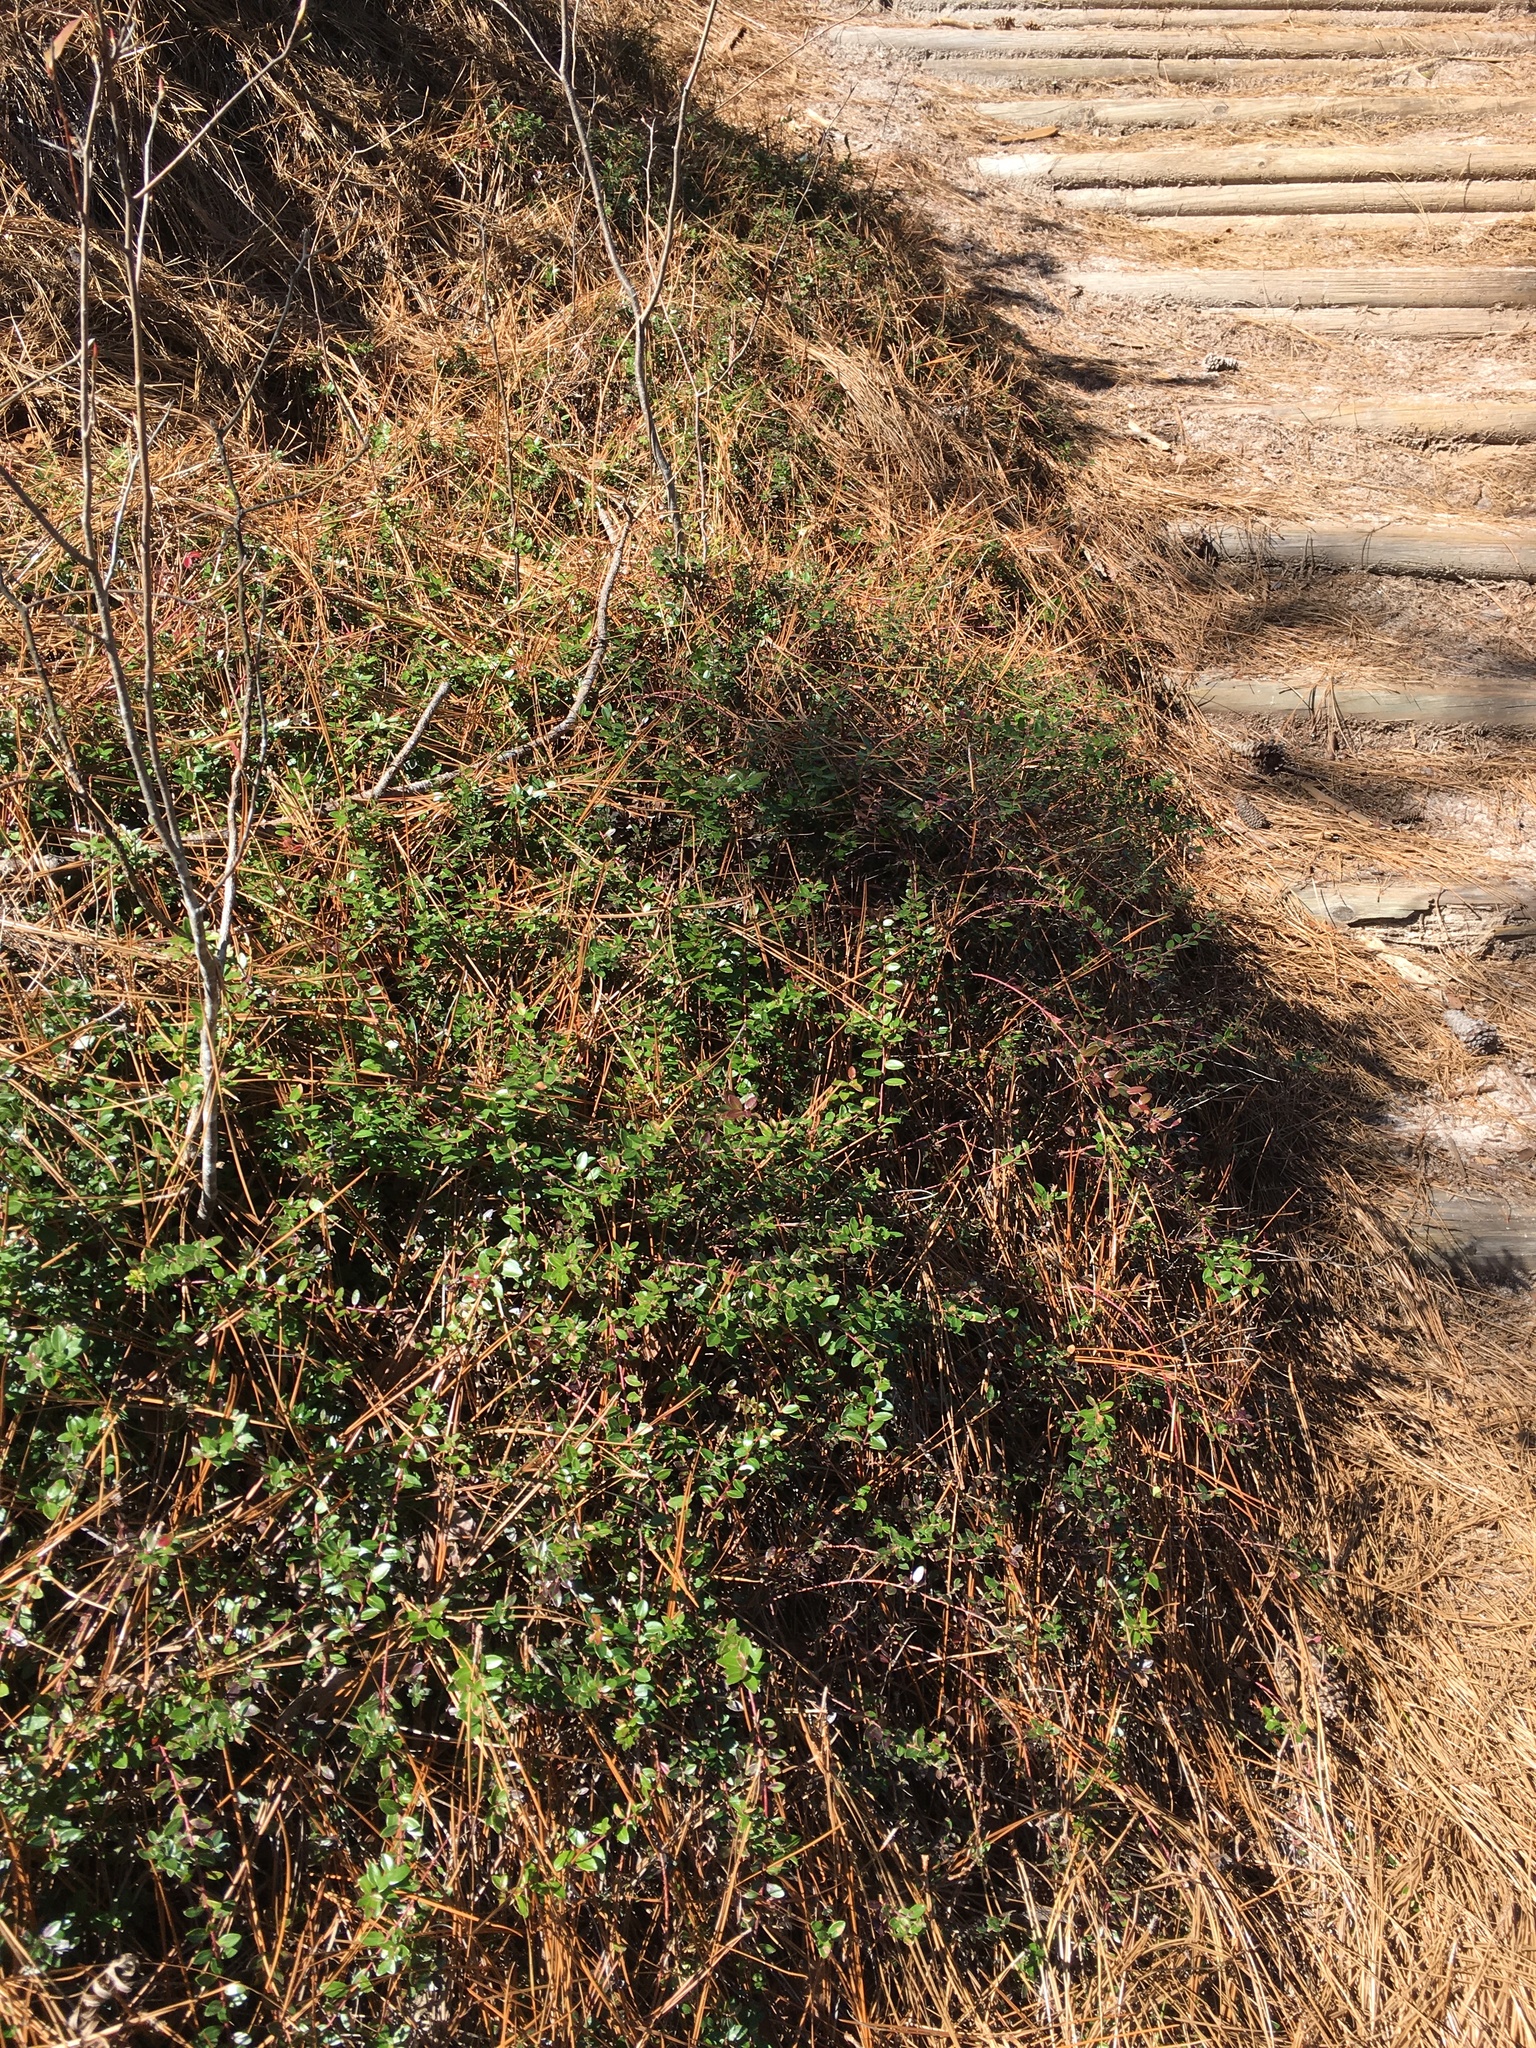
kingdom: Plantae
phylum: Tracheophyta
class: Magnoliopsida
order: Ericales
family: Ericaceae
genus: Vaccinium
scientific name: Vaccinium crassifolium
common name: Creeping blueberry
